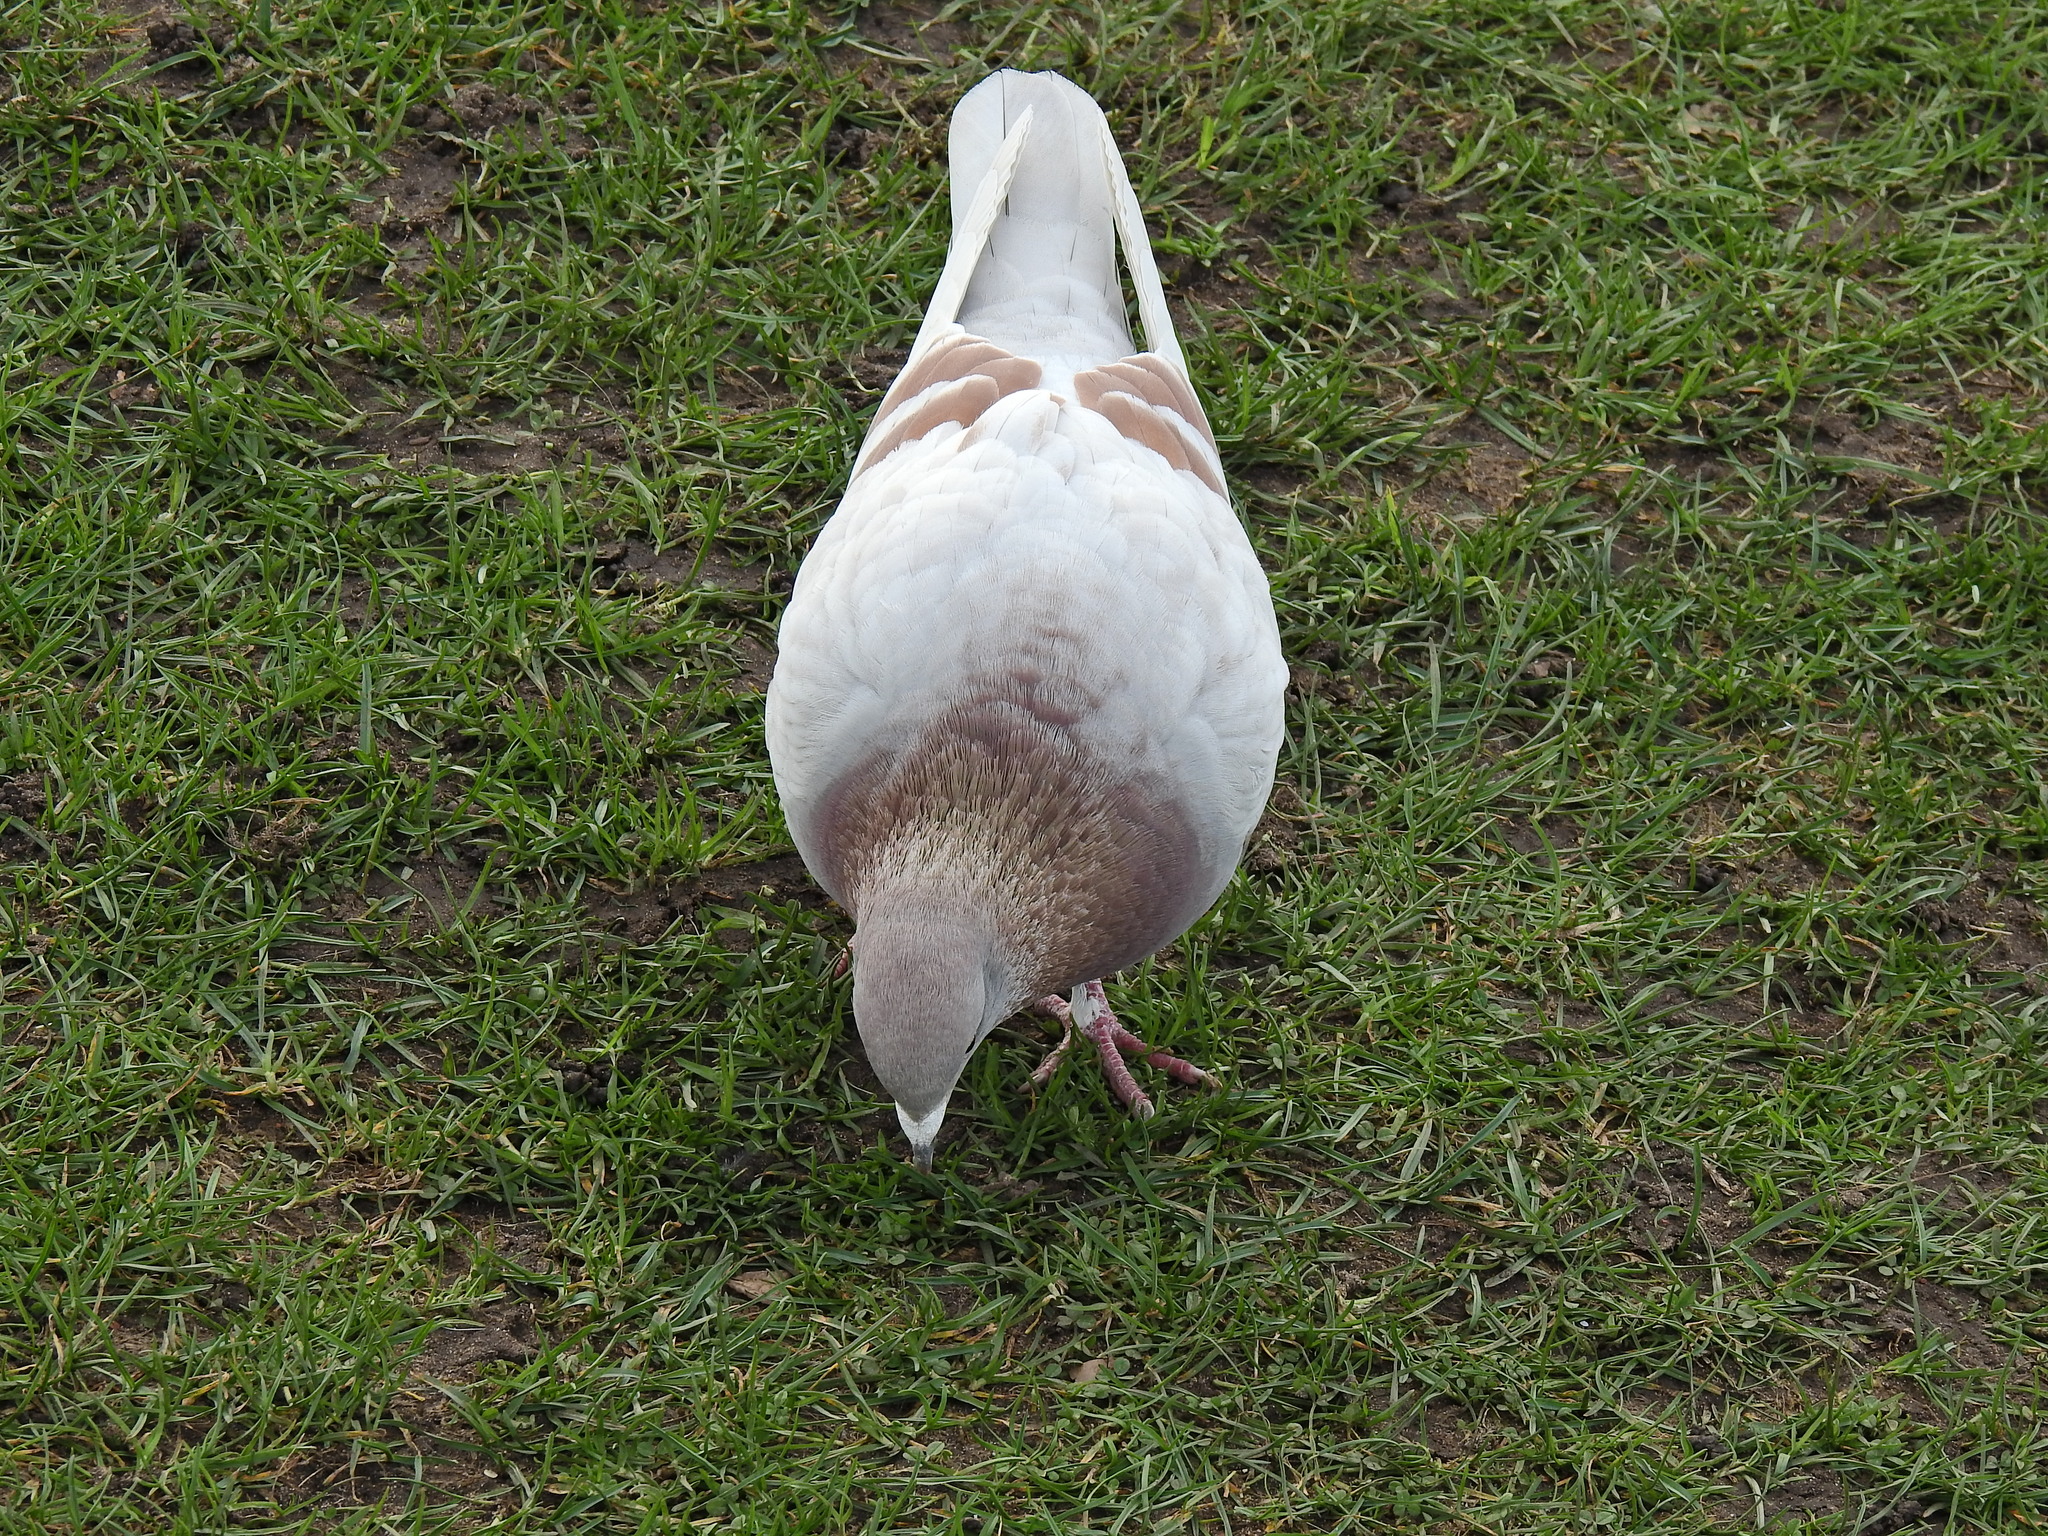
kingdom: Animalia
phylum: Chordata
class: Aves
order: Columbiformes
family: Columbidae
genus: Columba
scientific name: Columba livia
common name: Rock pigeon
